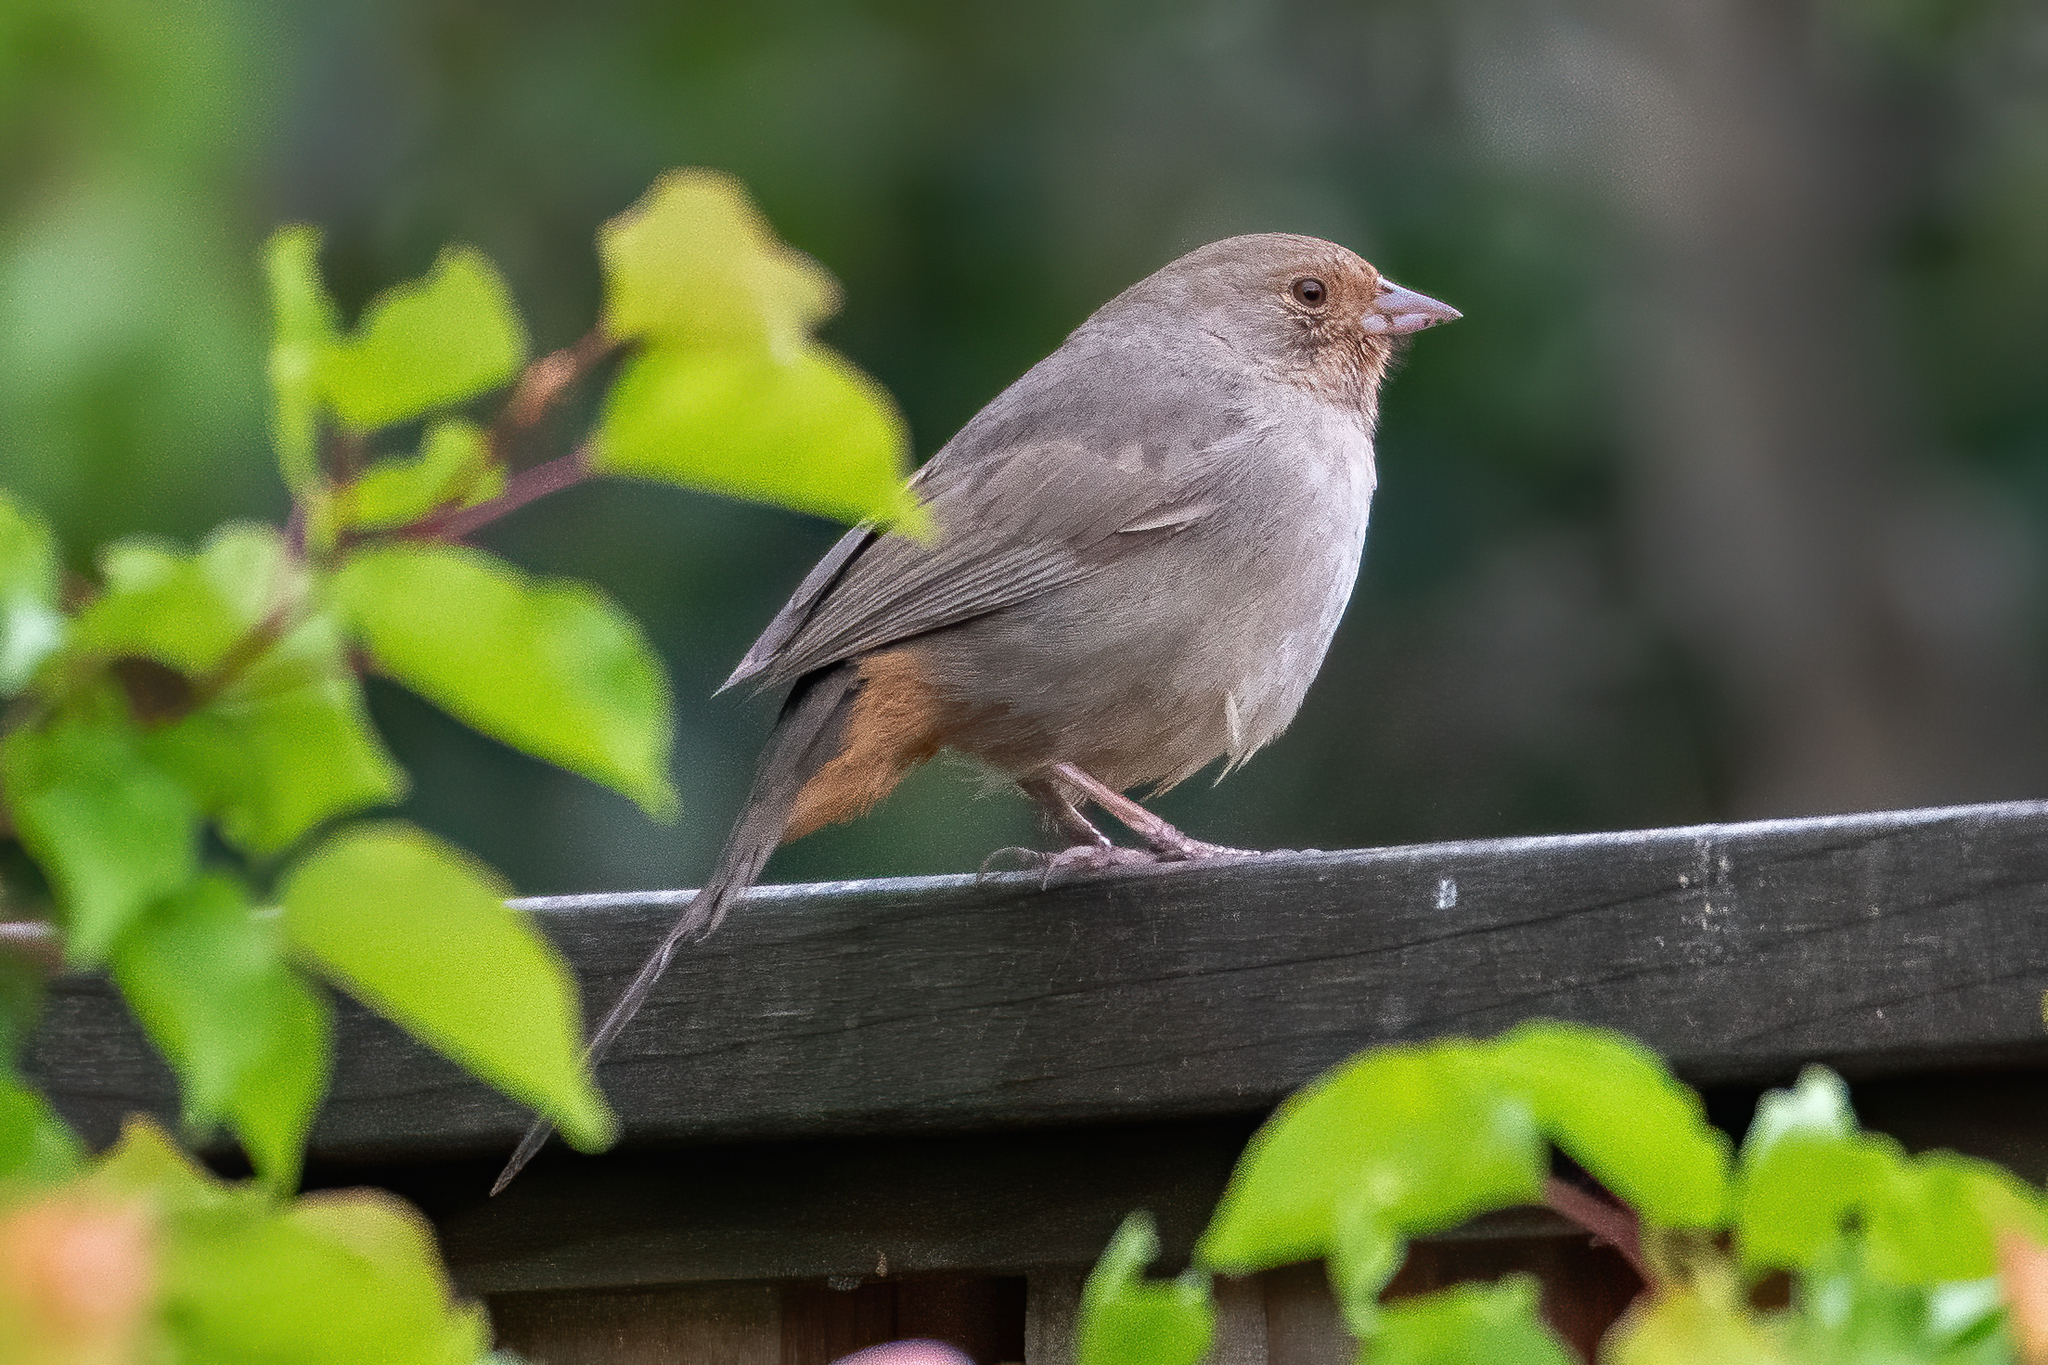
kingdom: Animalia
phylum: Chordata
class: Aves
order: Passeriformes
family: Passerellidae
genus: Melozone
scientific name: Melozone crissalis
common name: California towhee
